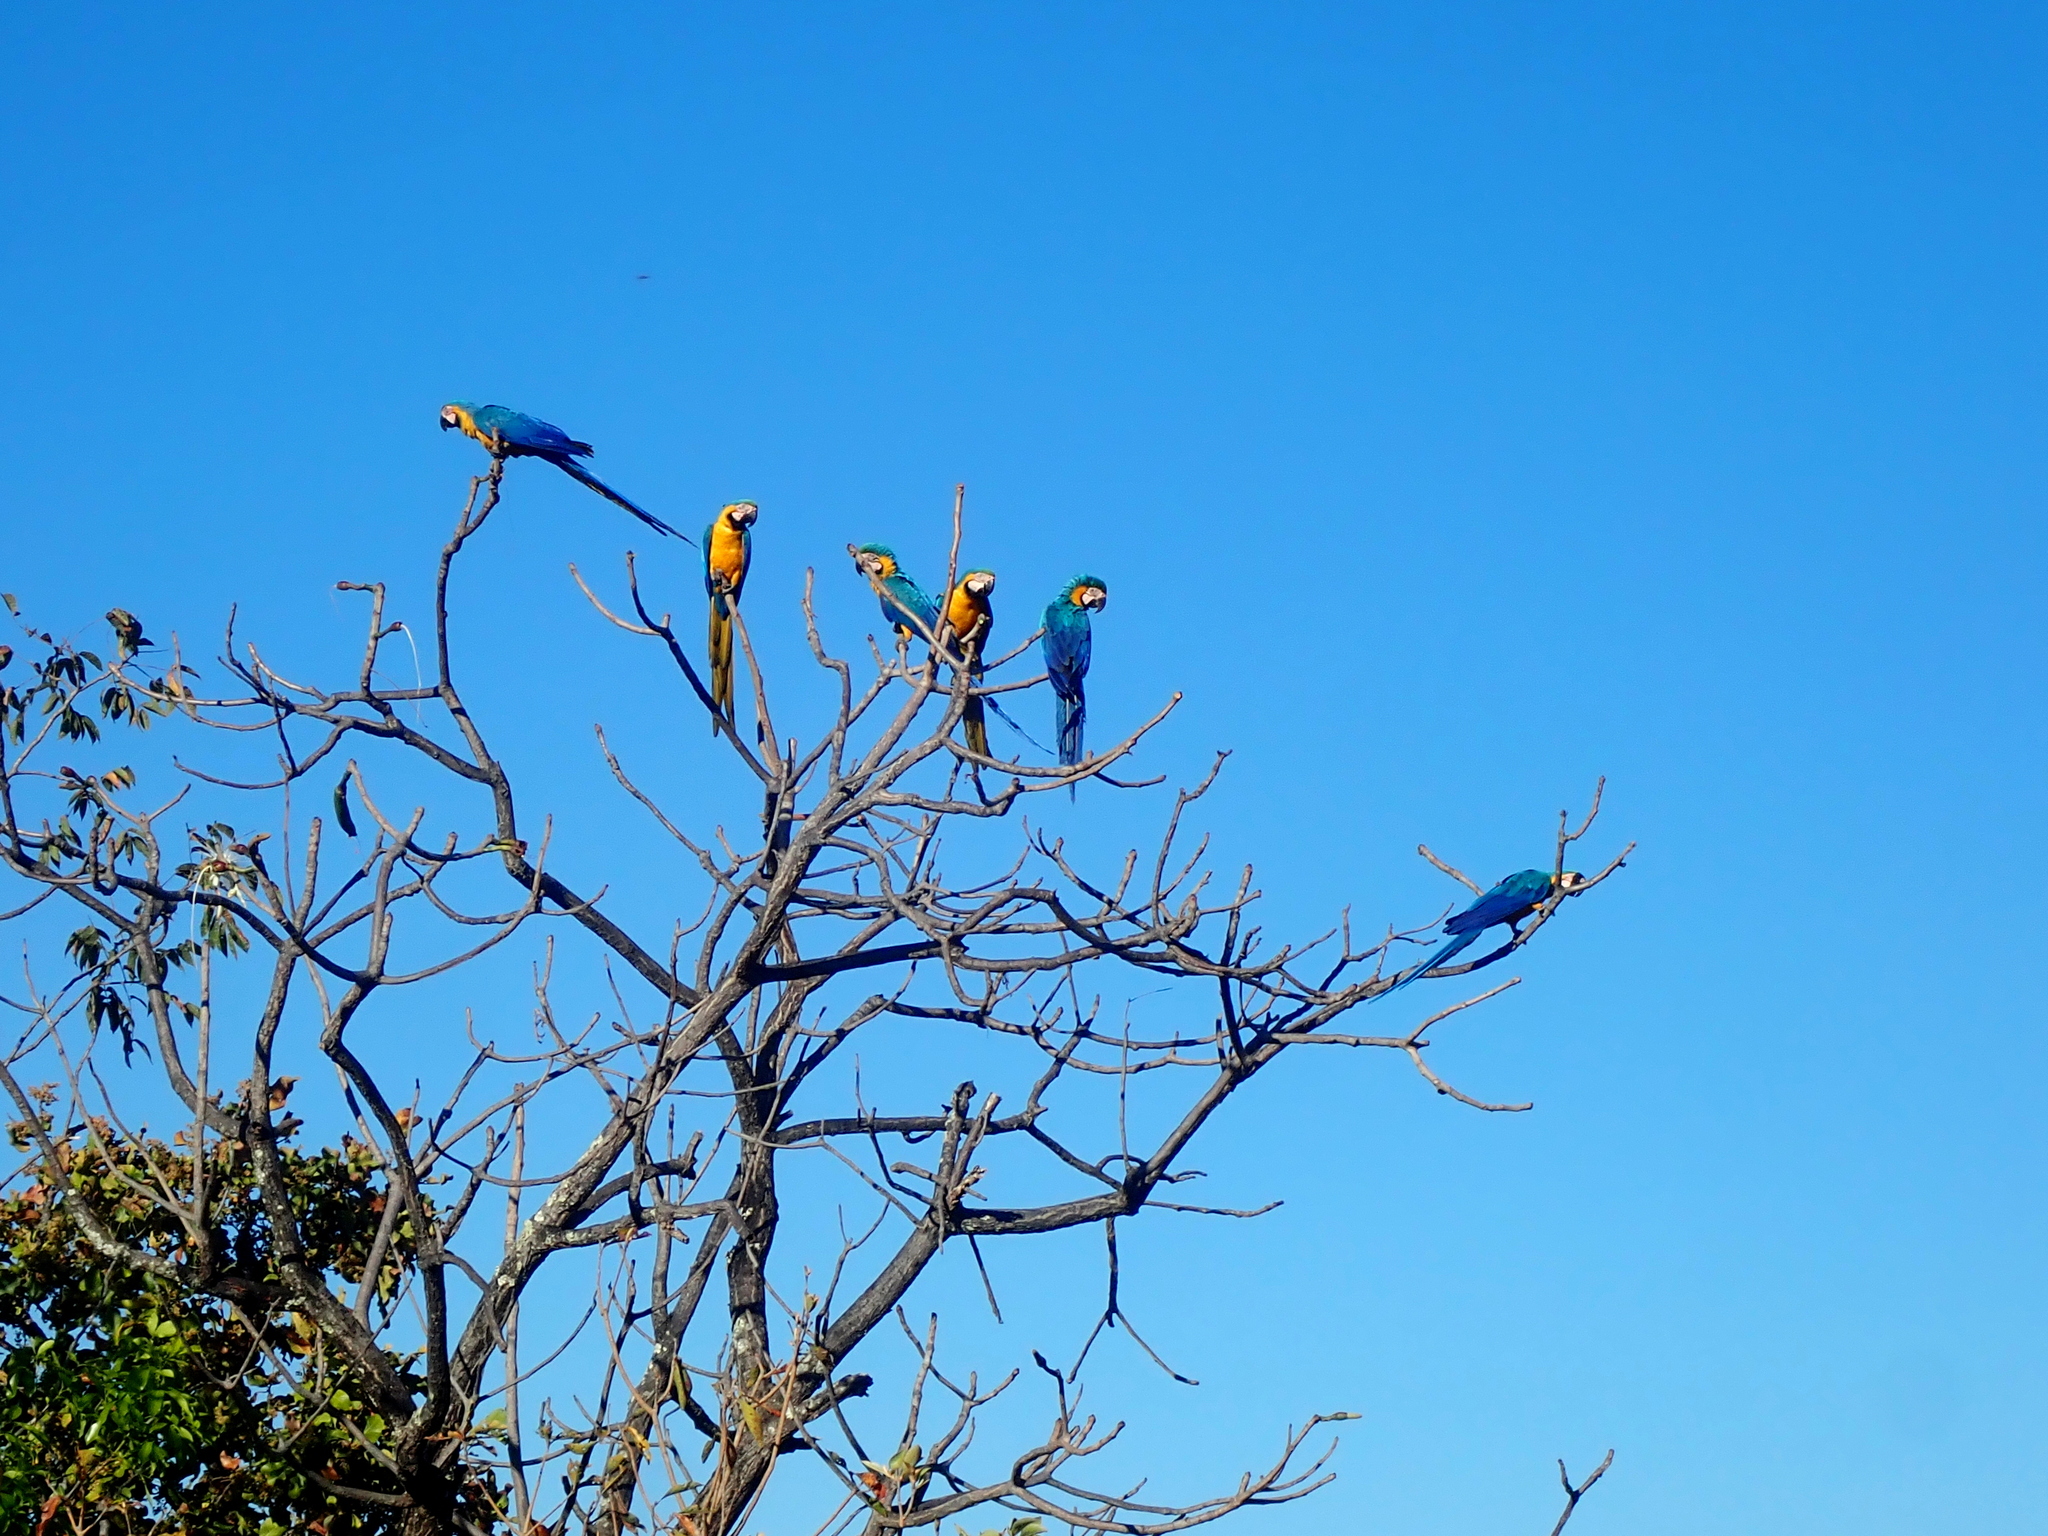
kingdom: Animalia
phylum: Chordata
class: Aves
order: Psittaciformes
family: Psittacidae
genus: Ara
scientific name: Ara ararauna
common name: Blue-and-yellow macaw
